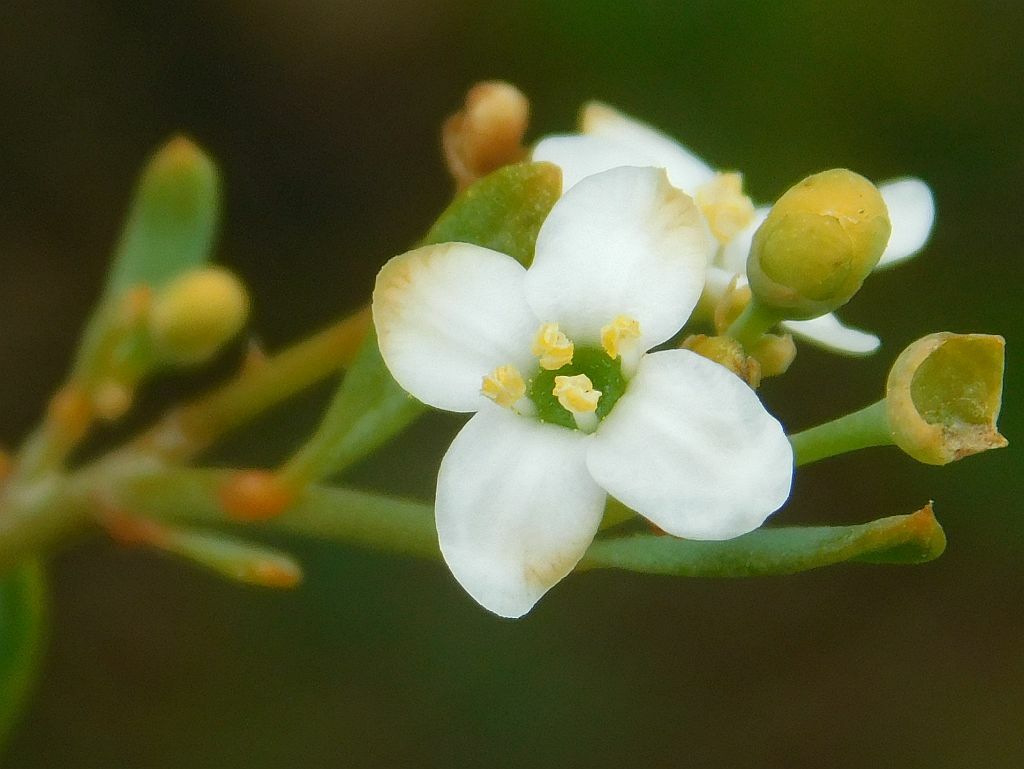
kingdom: Plantae
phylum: Tracheophyta
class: Magnoliopsida
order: Solanales
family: Montiniaceae
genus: Montinia
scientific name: Montinia caryophyllacea
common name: Wild clove-bush
